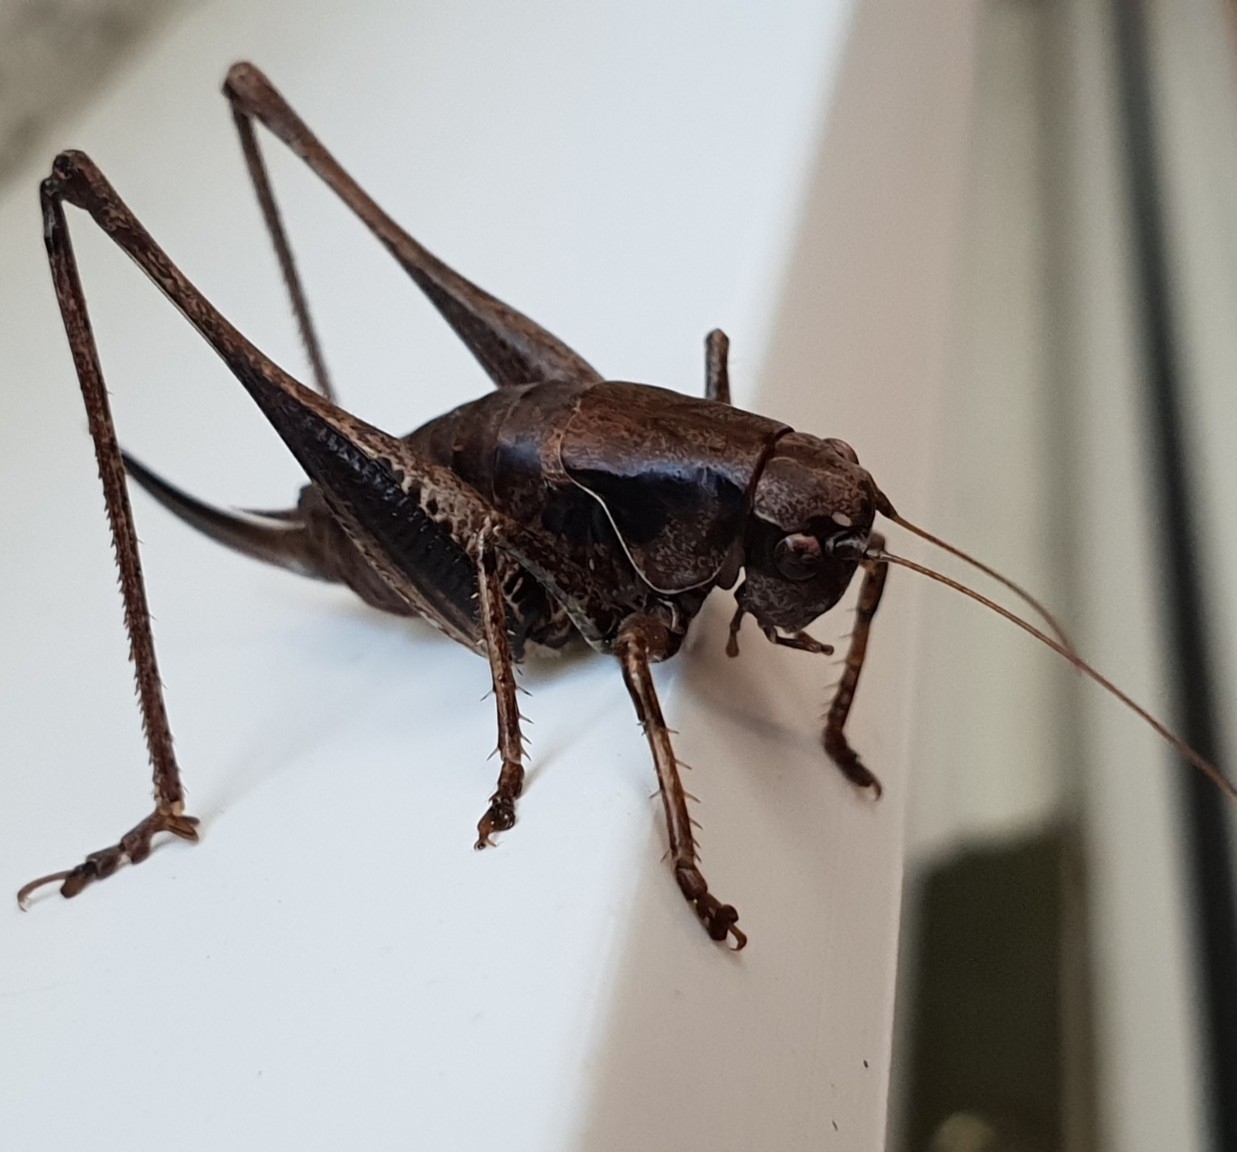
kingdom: Animalia
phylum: Arthropoda
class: Insecta
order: Orthoptera
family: Tettigoniidae
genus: Pholidoptera
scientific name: Pholidoptera griseoaptera
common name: Dark bush-cricket
